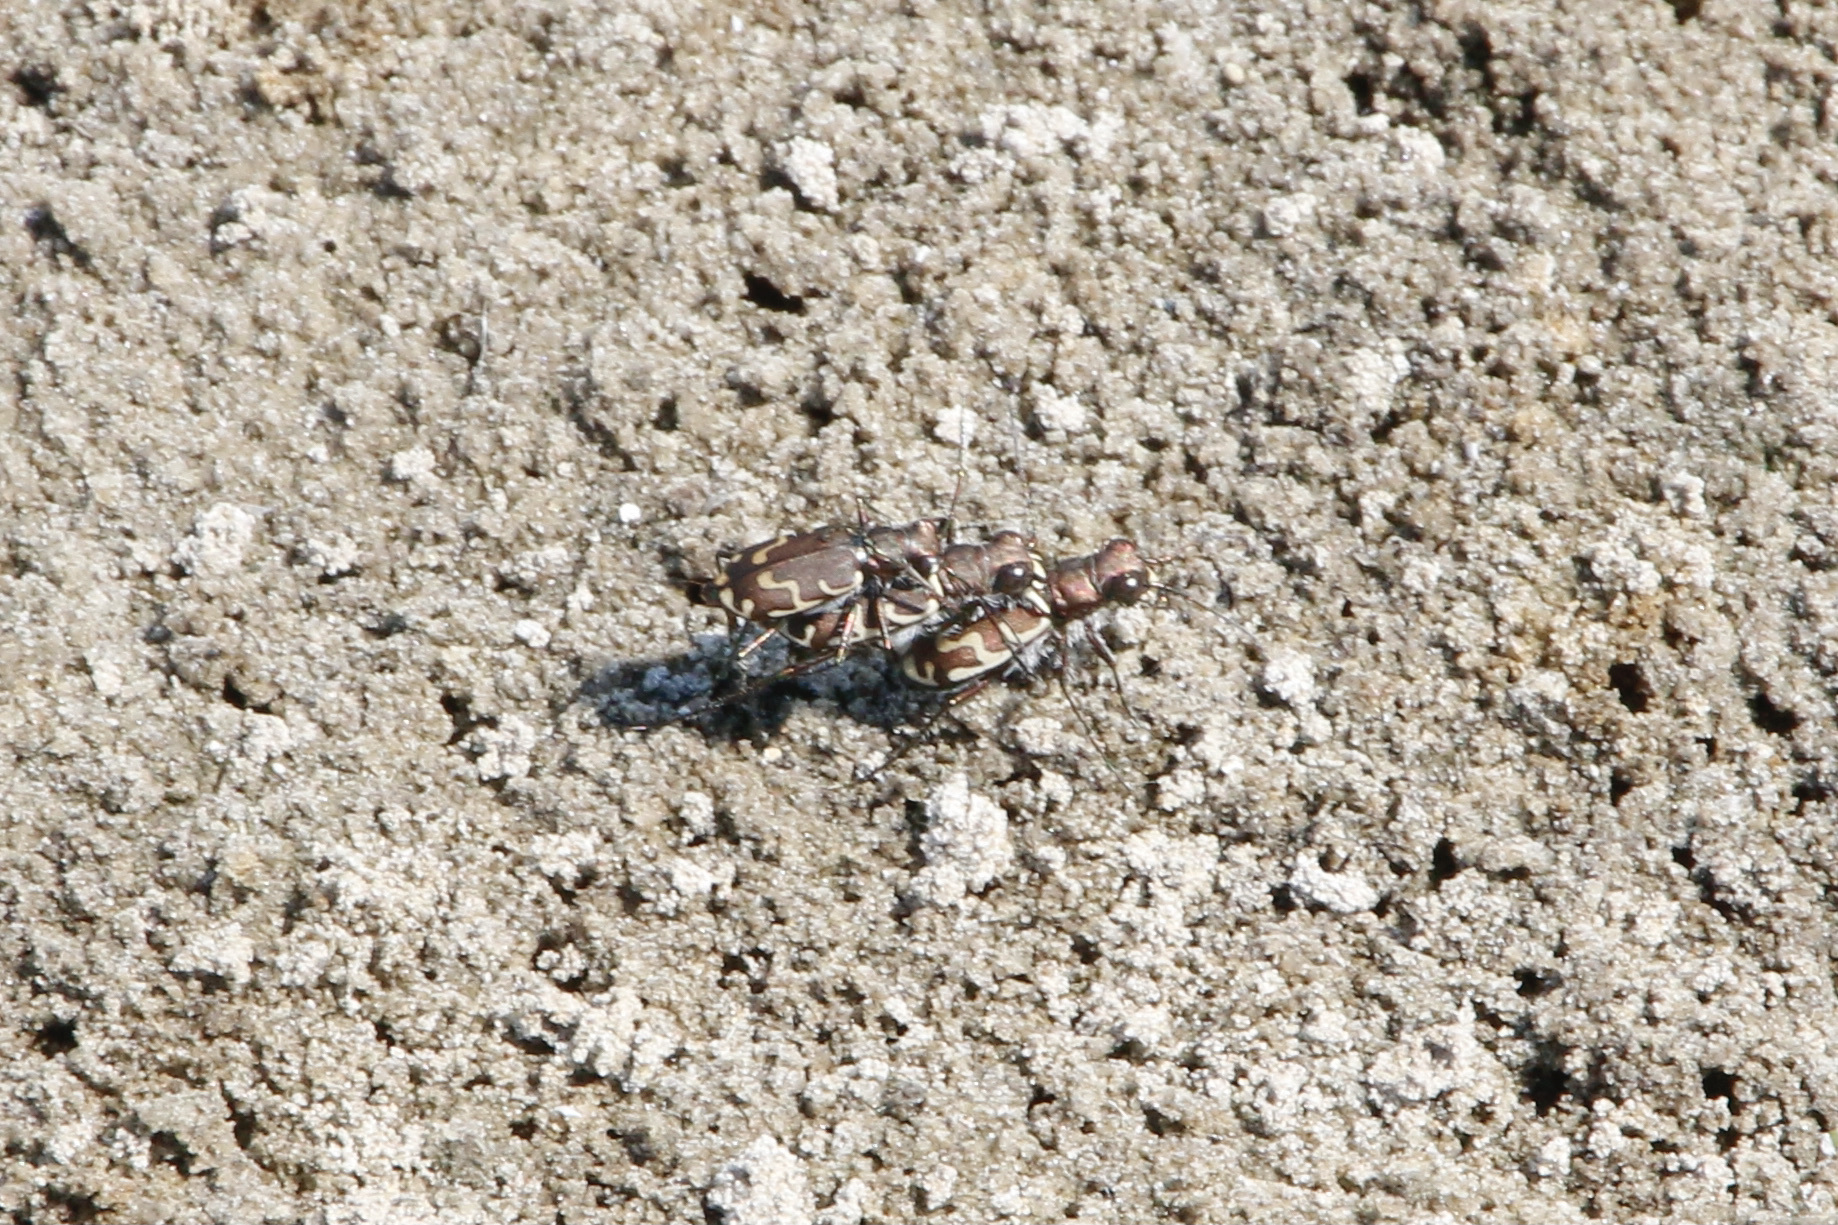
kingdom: Animalia
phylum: Arthropoda
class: Insecta
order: Coleoptera
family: Carabidae
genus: Cicindela
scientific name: Cicindela repanda
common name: Bronzed tiger beetle
